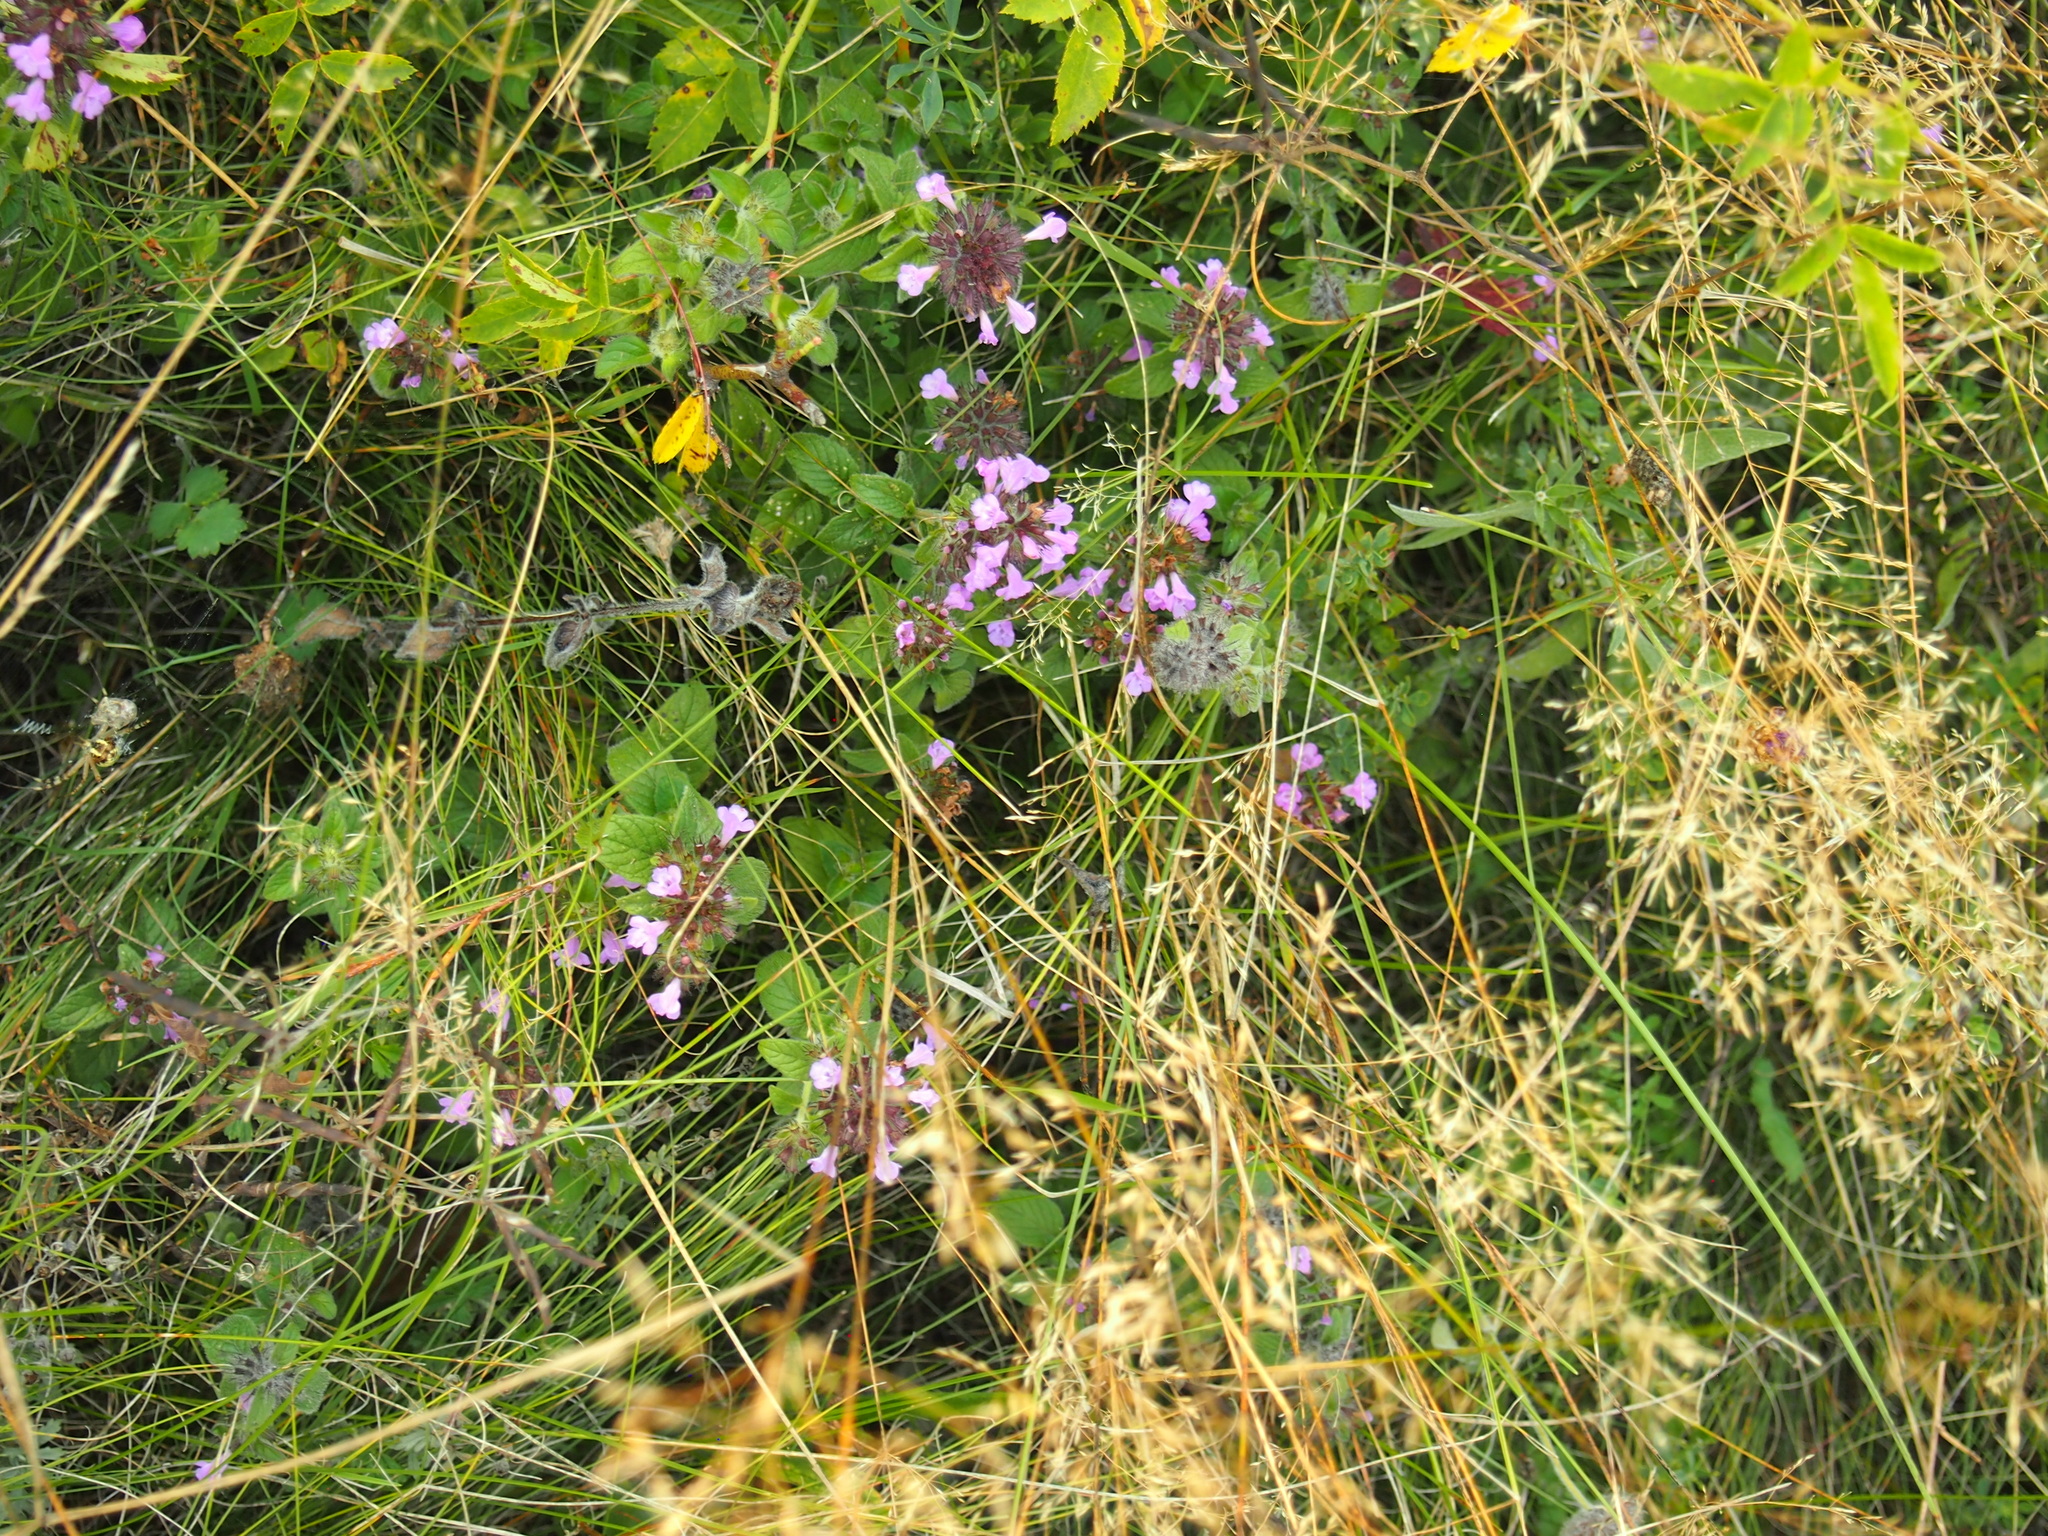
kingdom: Plantae
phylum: Tracheophyta
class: Magnoliopsida
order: Lamiales
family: Lamiaceae
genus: Clinopodium
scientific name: Clinopodium vulgare
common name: Wild basil
